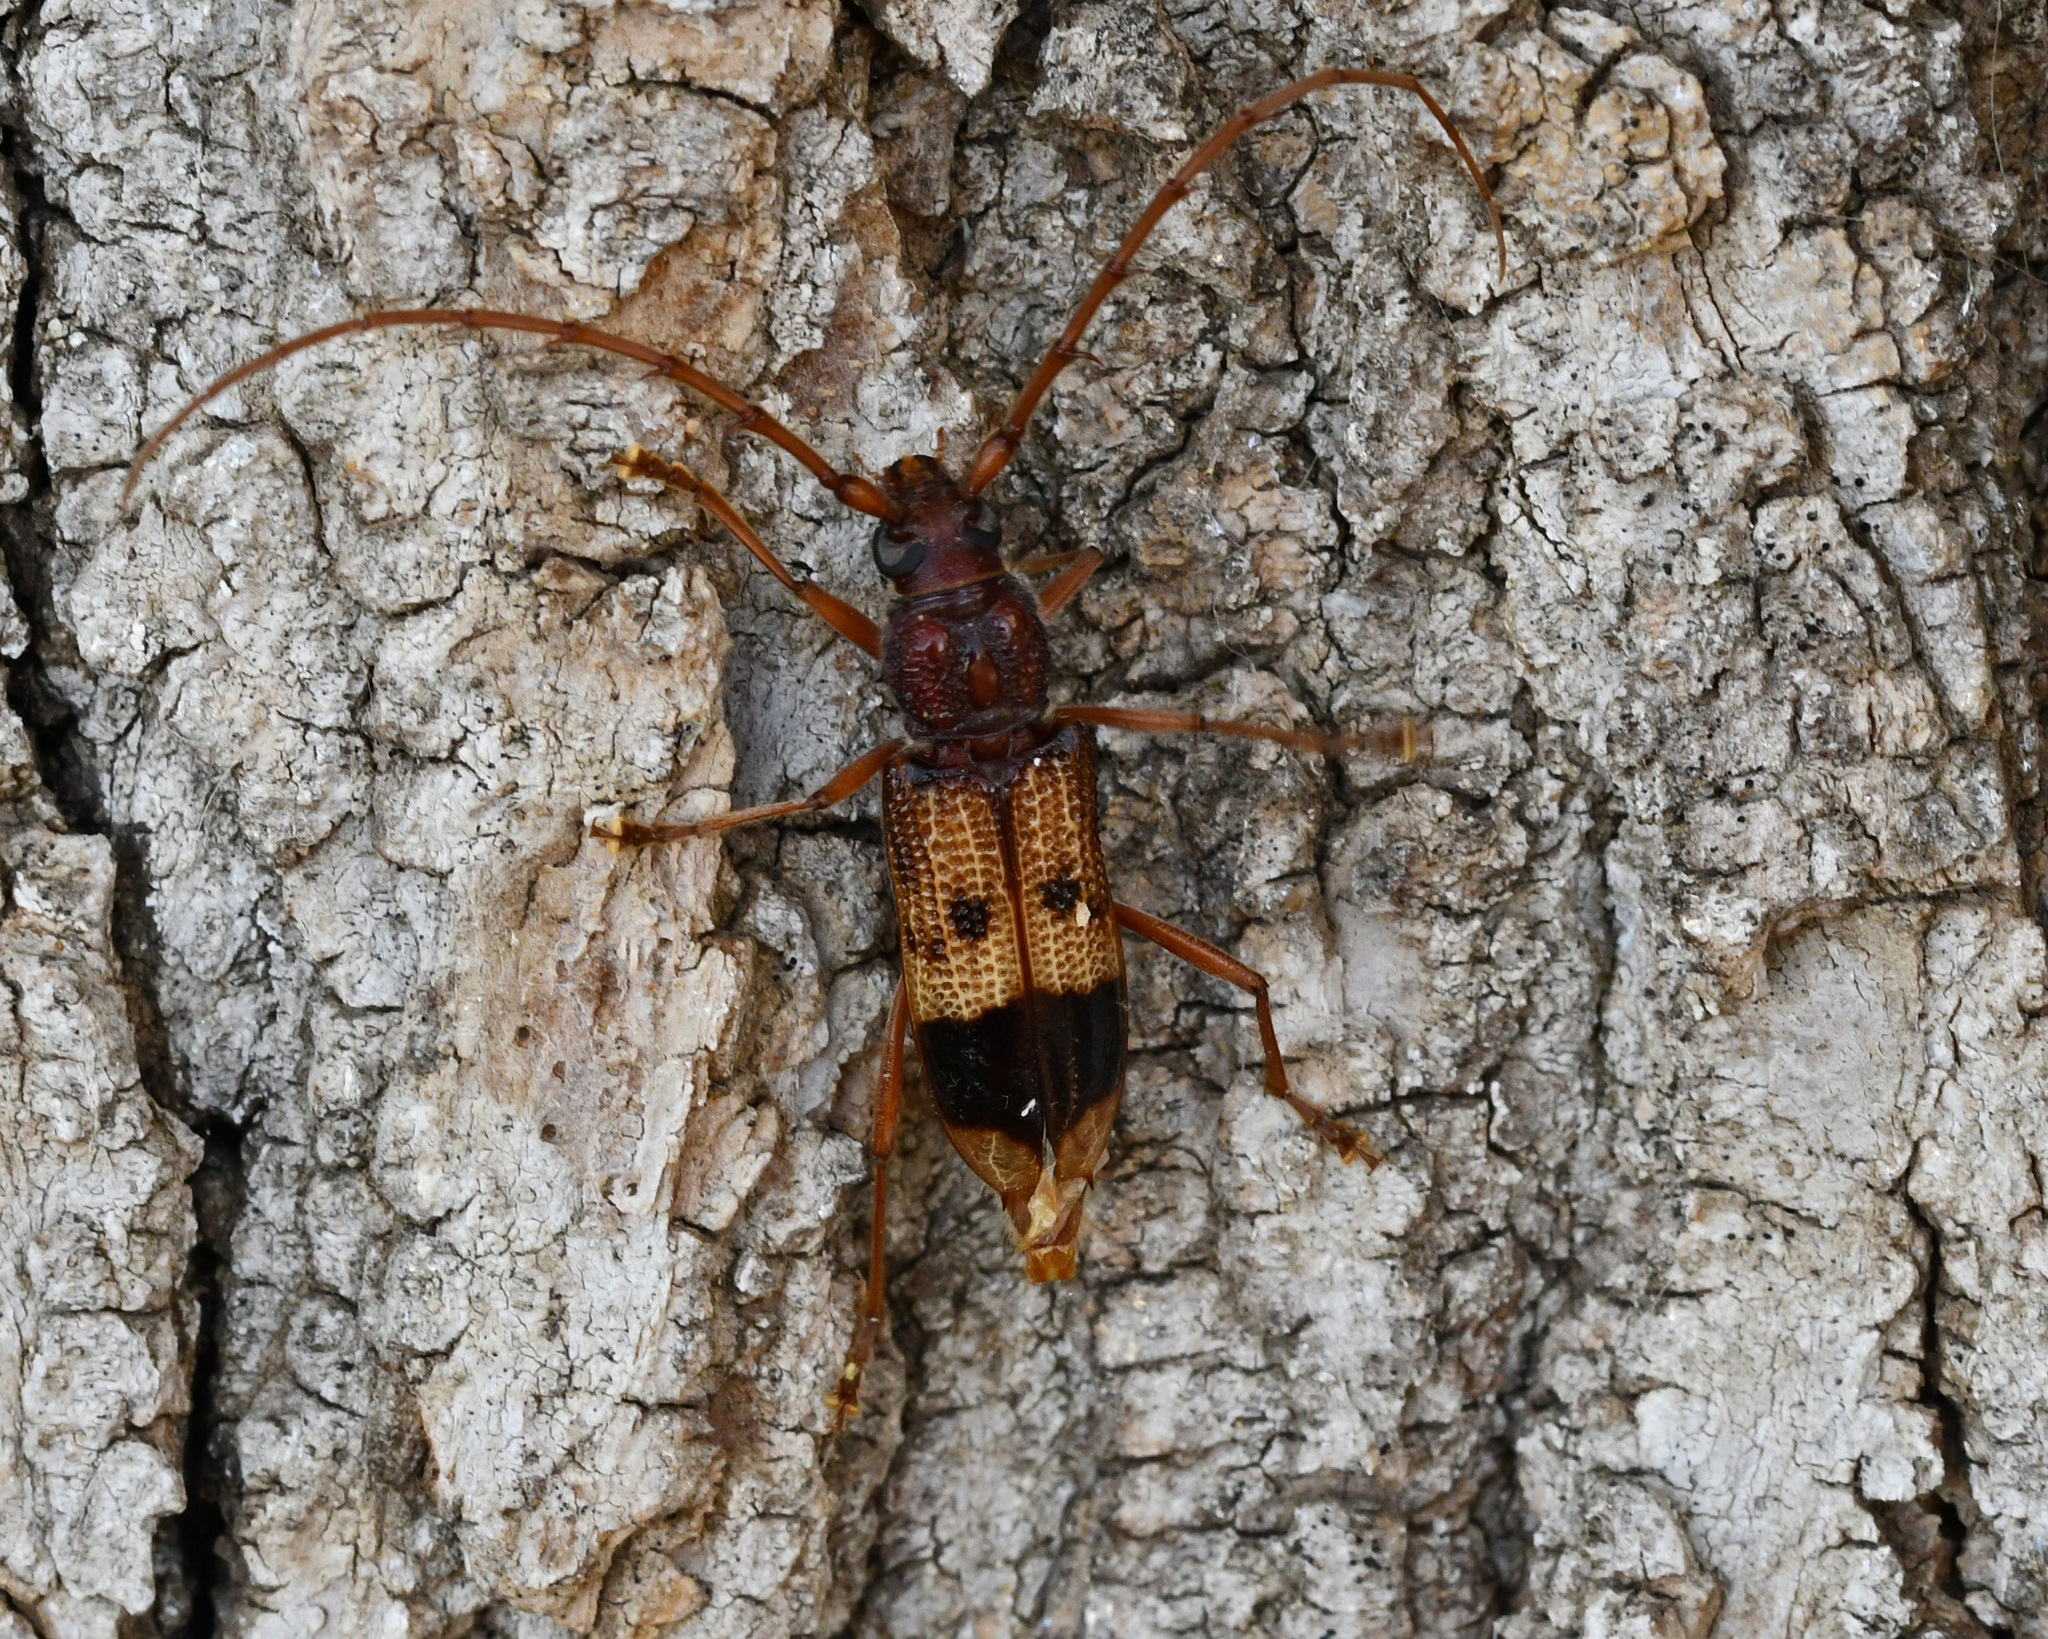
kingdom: Animalia
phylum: Arthropoda
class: Insecta
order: Coleoptera
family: Cerambycidae
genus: Phoracantha
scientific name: Phoracantha recurva
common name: Eucalyptus longhorned borer
